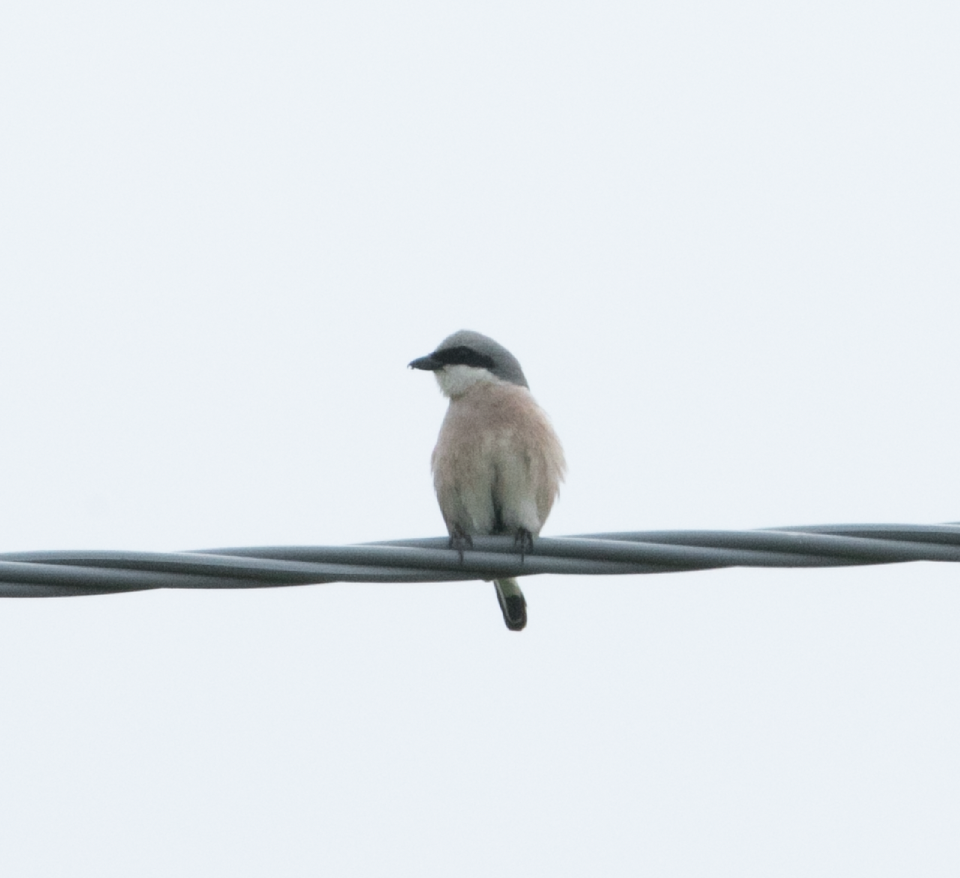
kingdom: Animalia
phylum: Chordata
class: Aves
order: Passeriformes
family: Laniidae
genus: Lanius
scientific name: Lanius collurio
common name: Red-backed shrike
